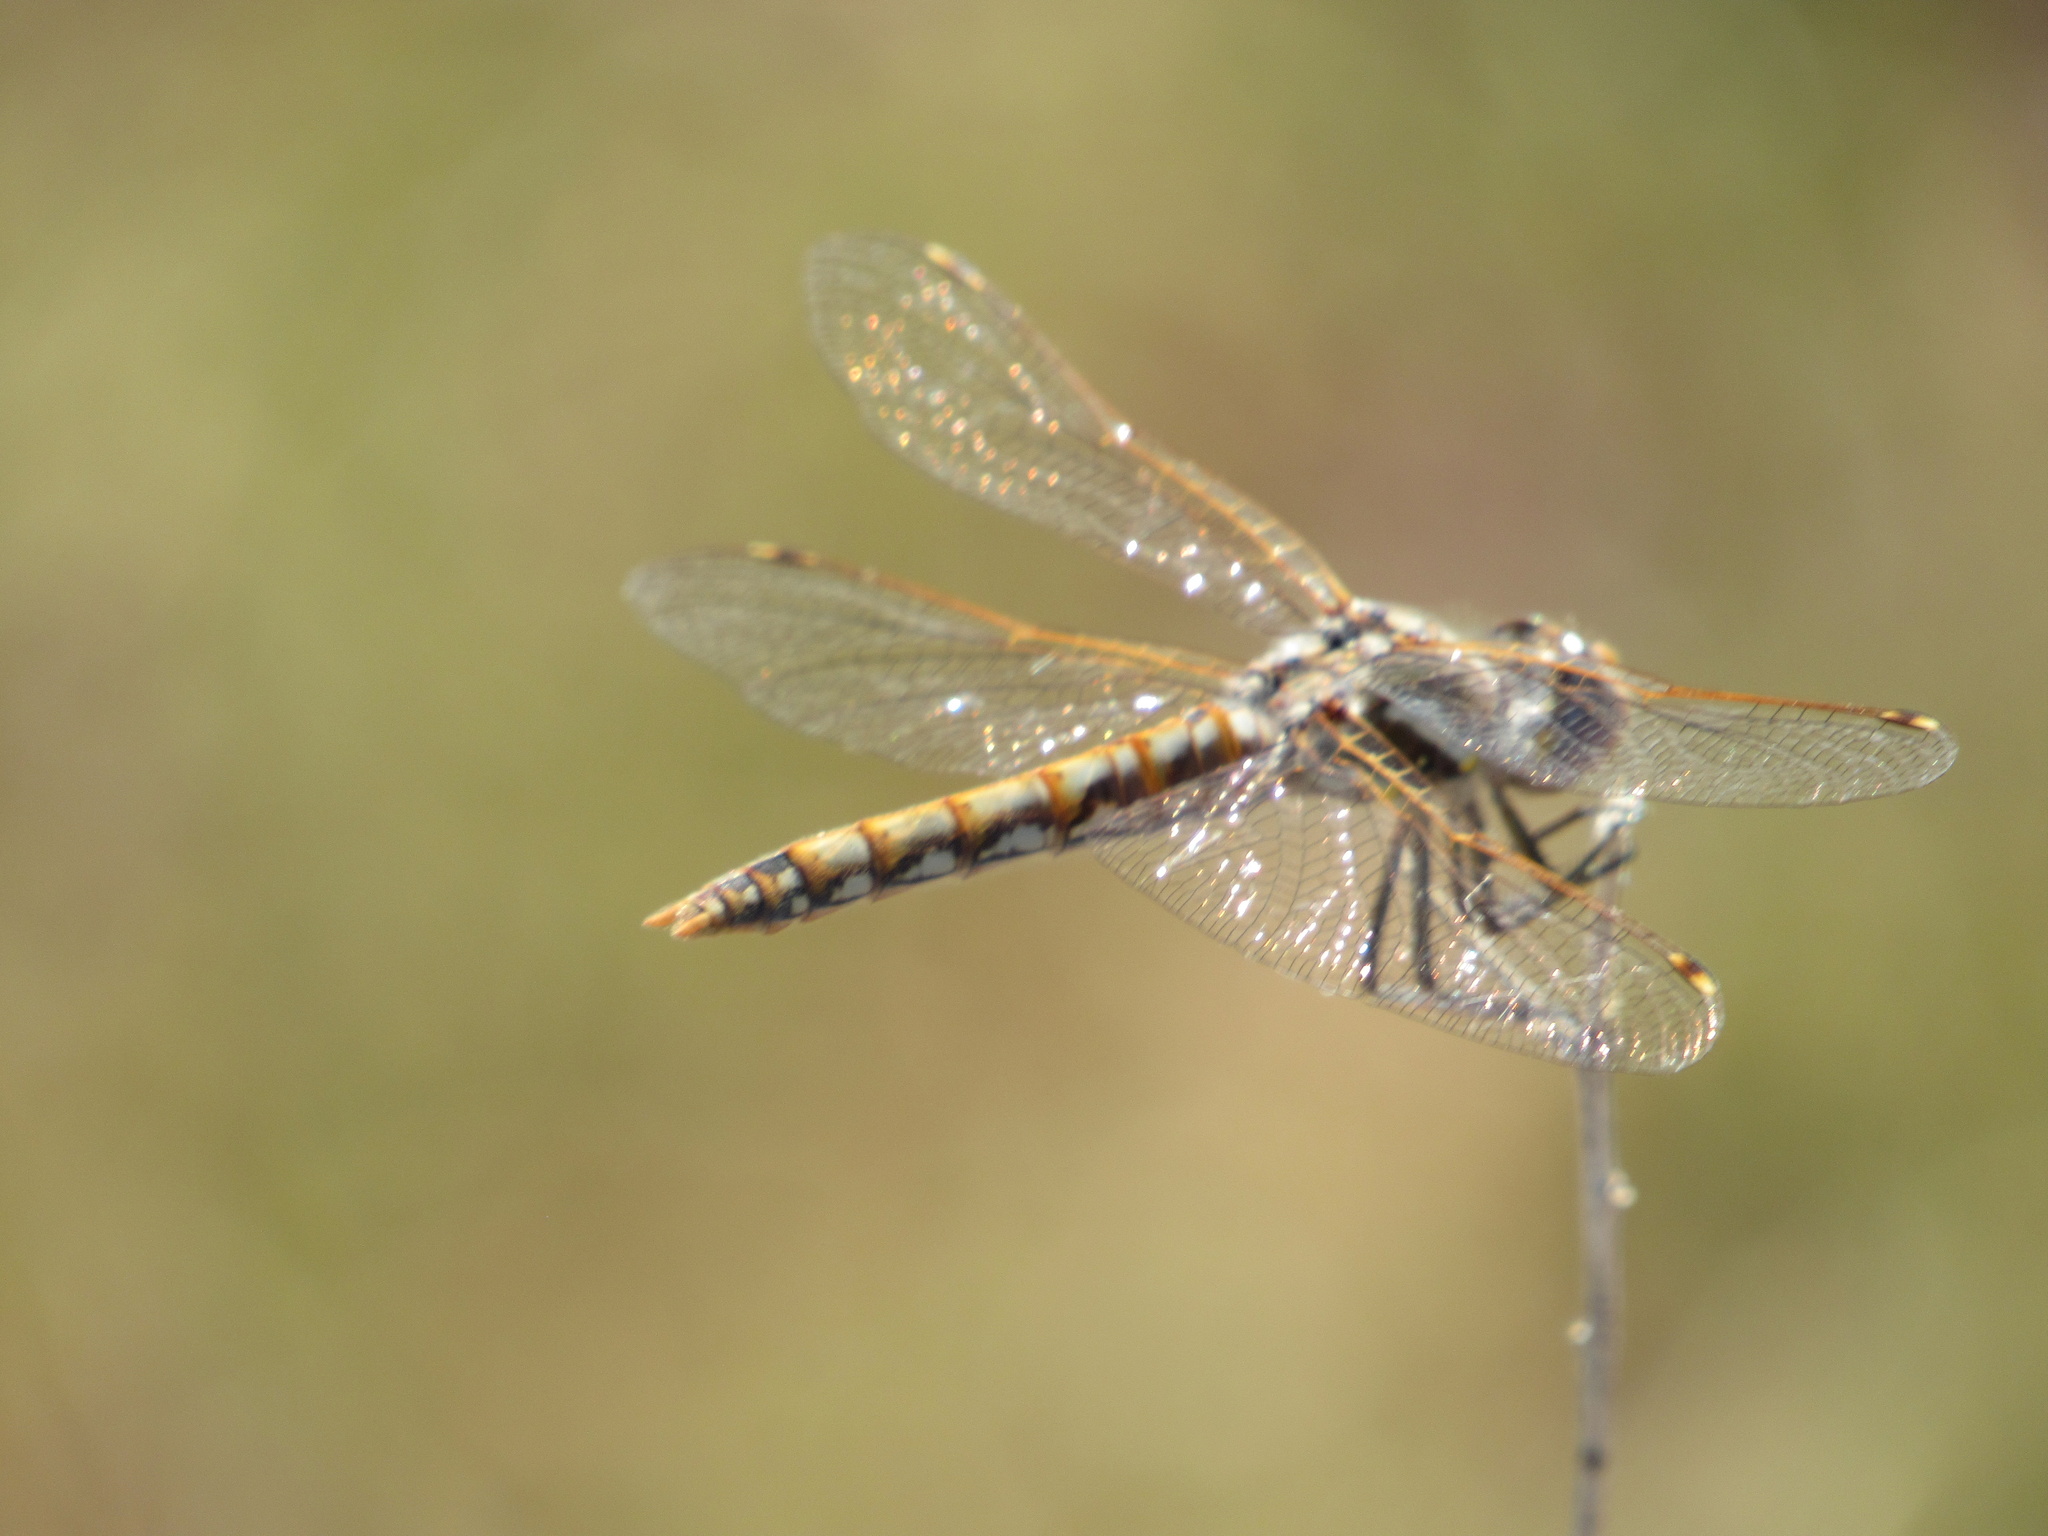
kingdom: Animalia
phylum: Arthropoda
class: Insecta
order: Odonata
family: Libellulidae
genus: Sympetrum
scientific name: Sympetrum corruptum
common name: Variegated meadowhawk
